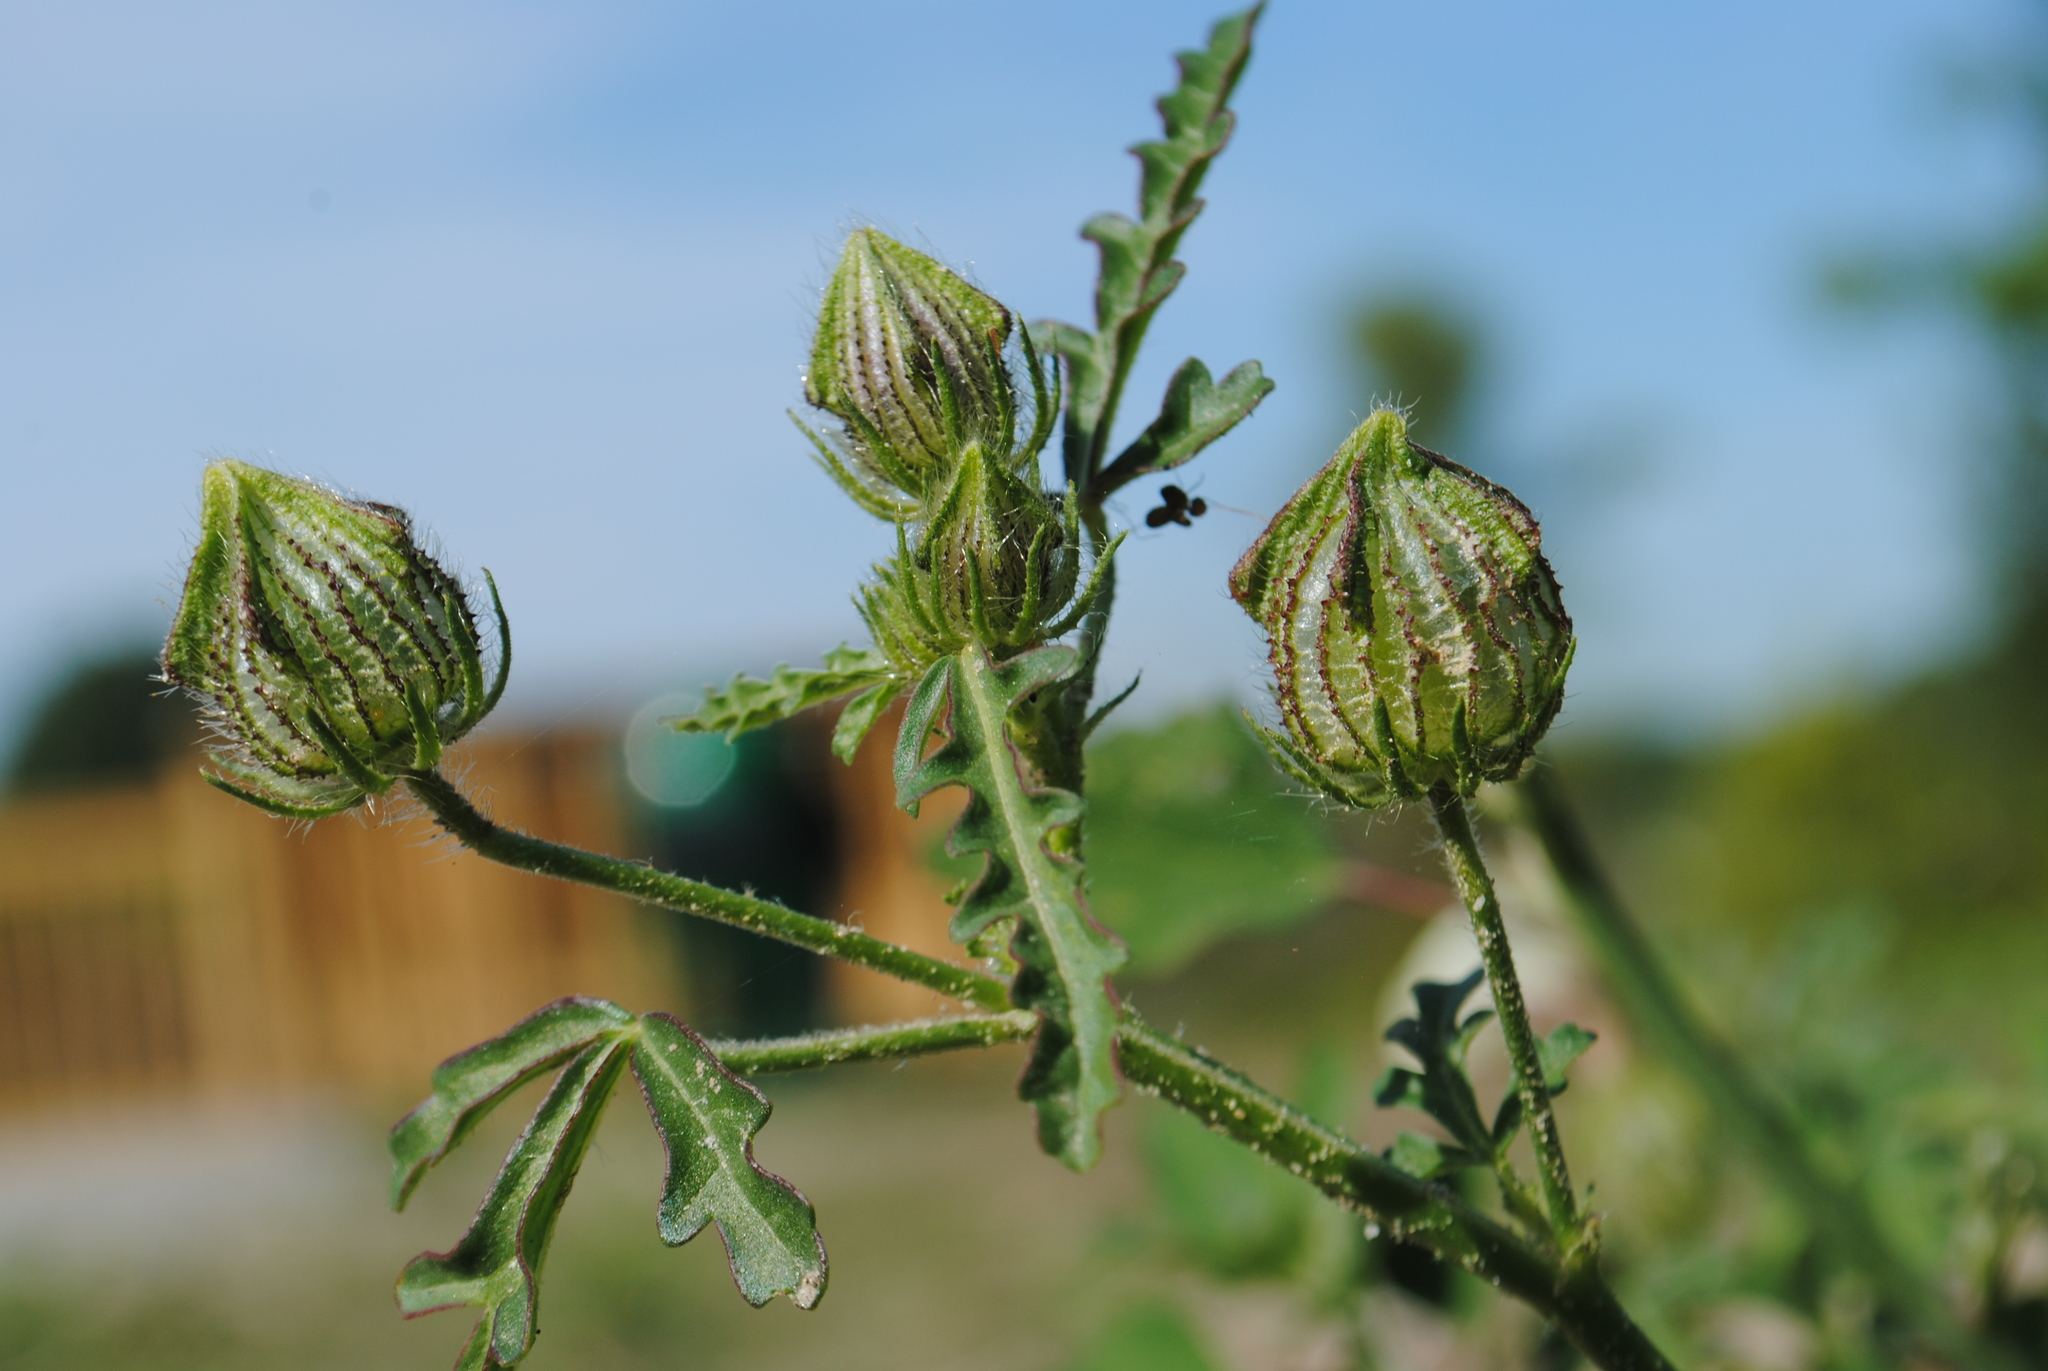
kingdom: Plantae
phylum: Tracheophyta
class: Magnoliopsida
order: Malvales
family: Malvaceae
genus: Hibiscus
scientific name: Hibiscus trionum
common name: Bladder ketmia
